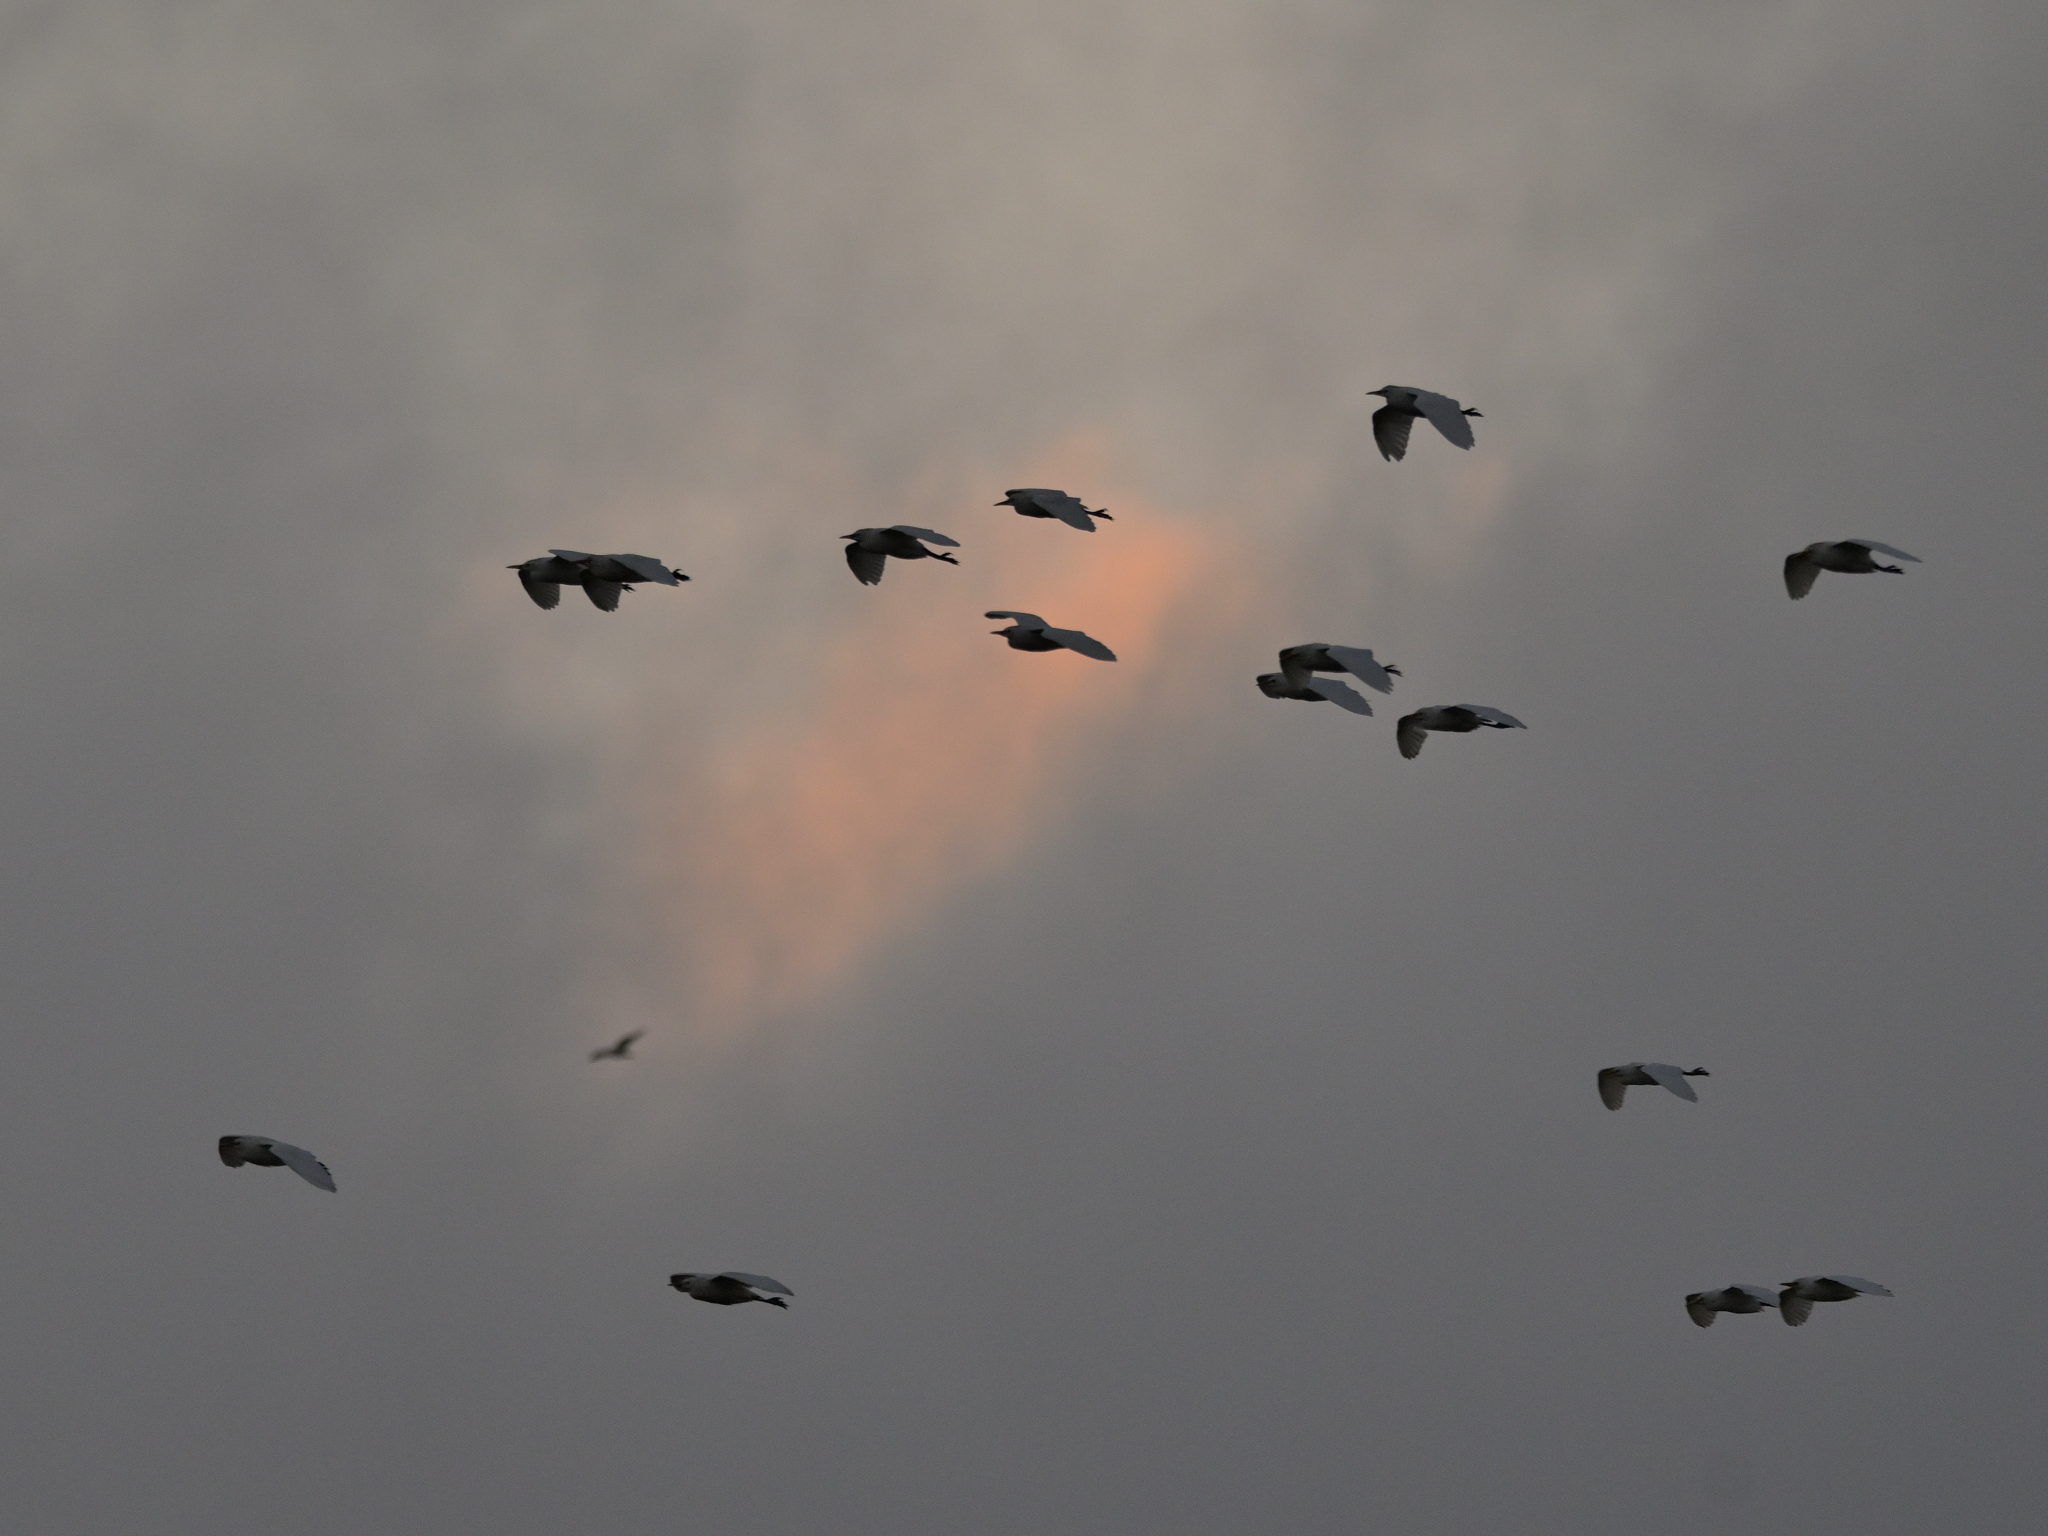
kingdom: Animalia
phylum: Chordata
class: Aves
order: Pelecaniformes
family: Ardeidae
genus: Bubulcus
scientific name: Bubulcus ibis
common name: Cattle egret
